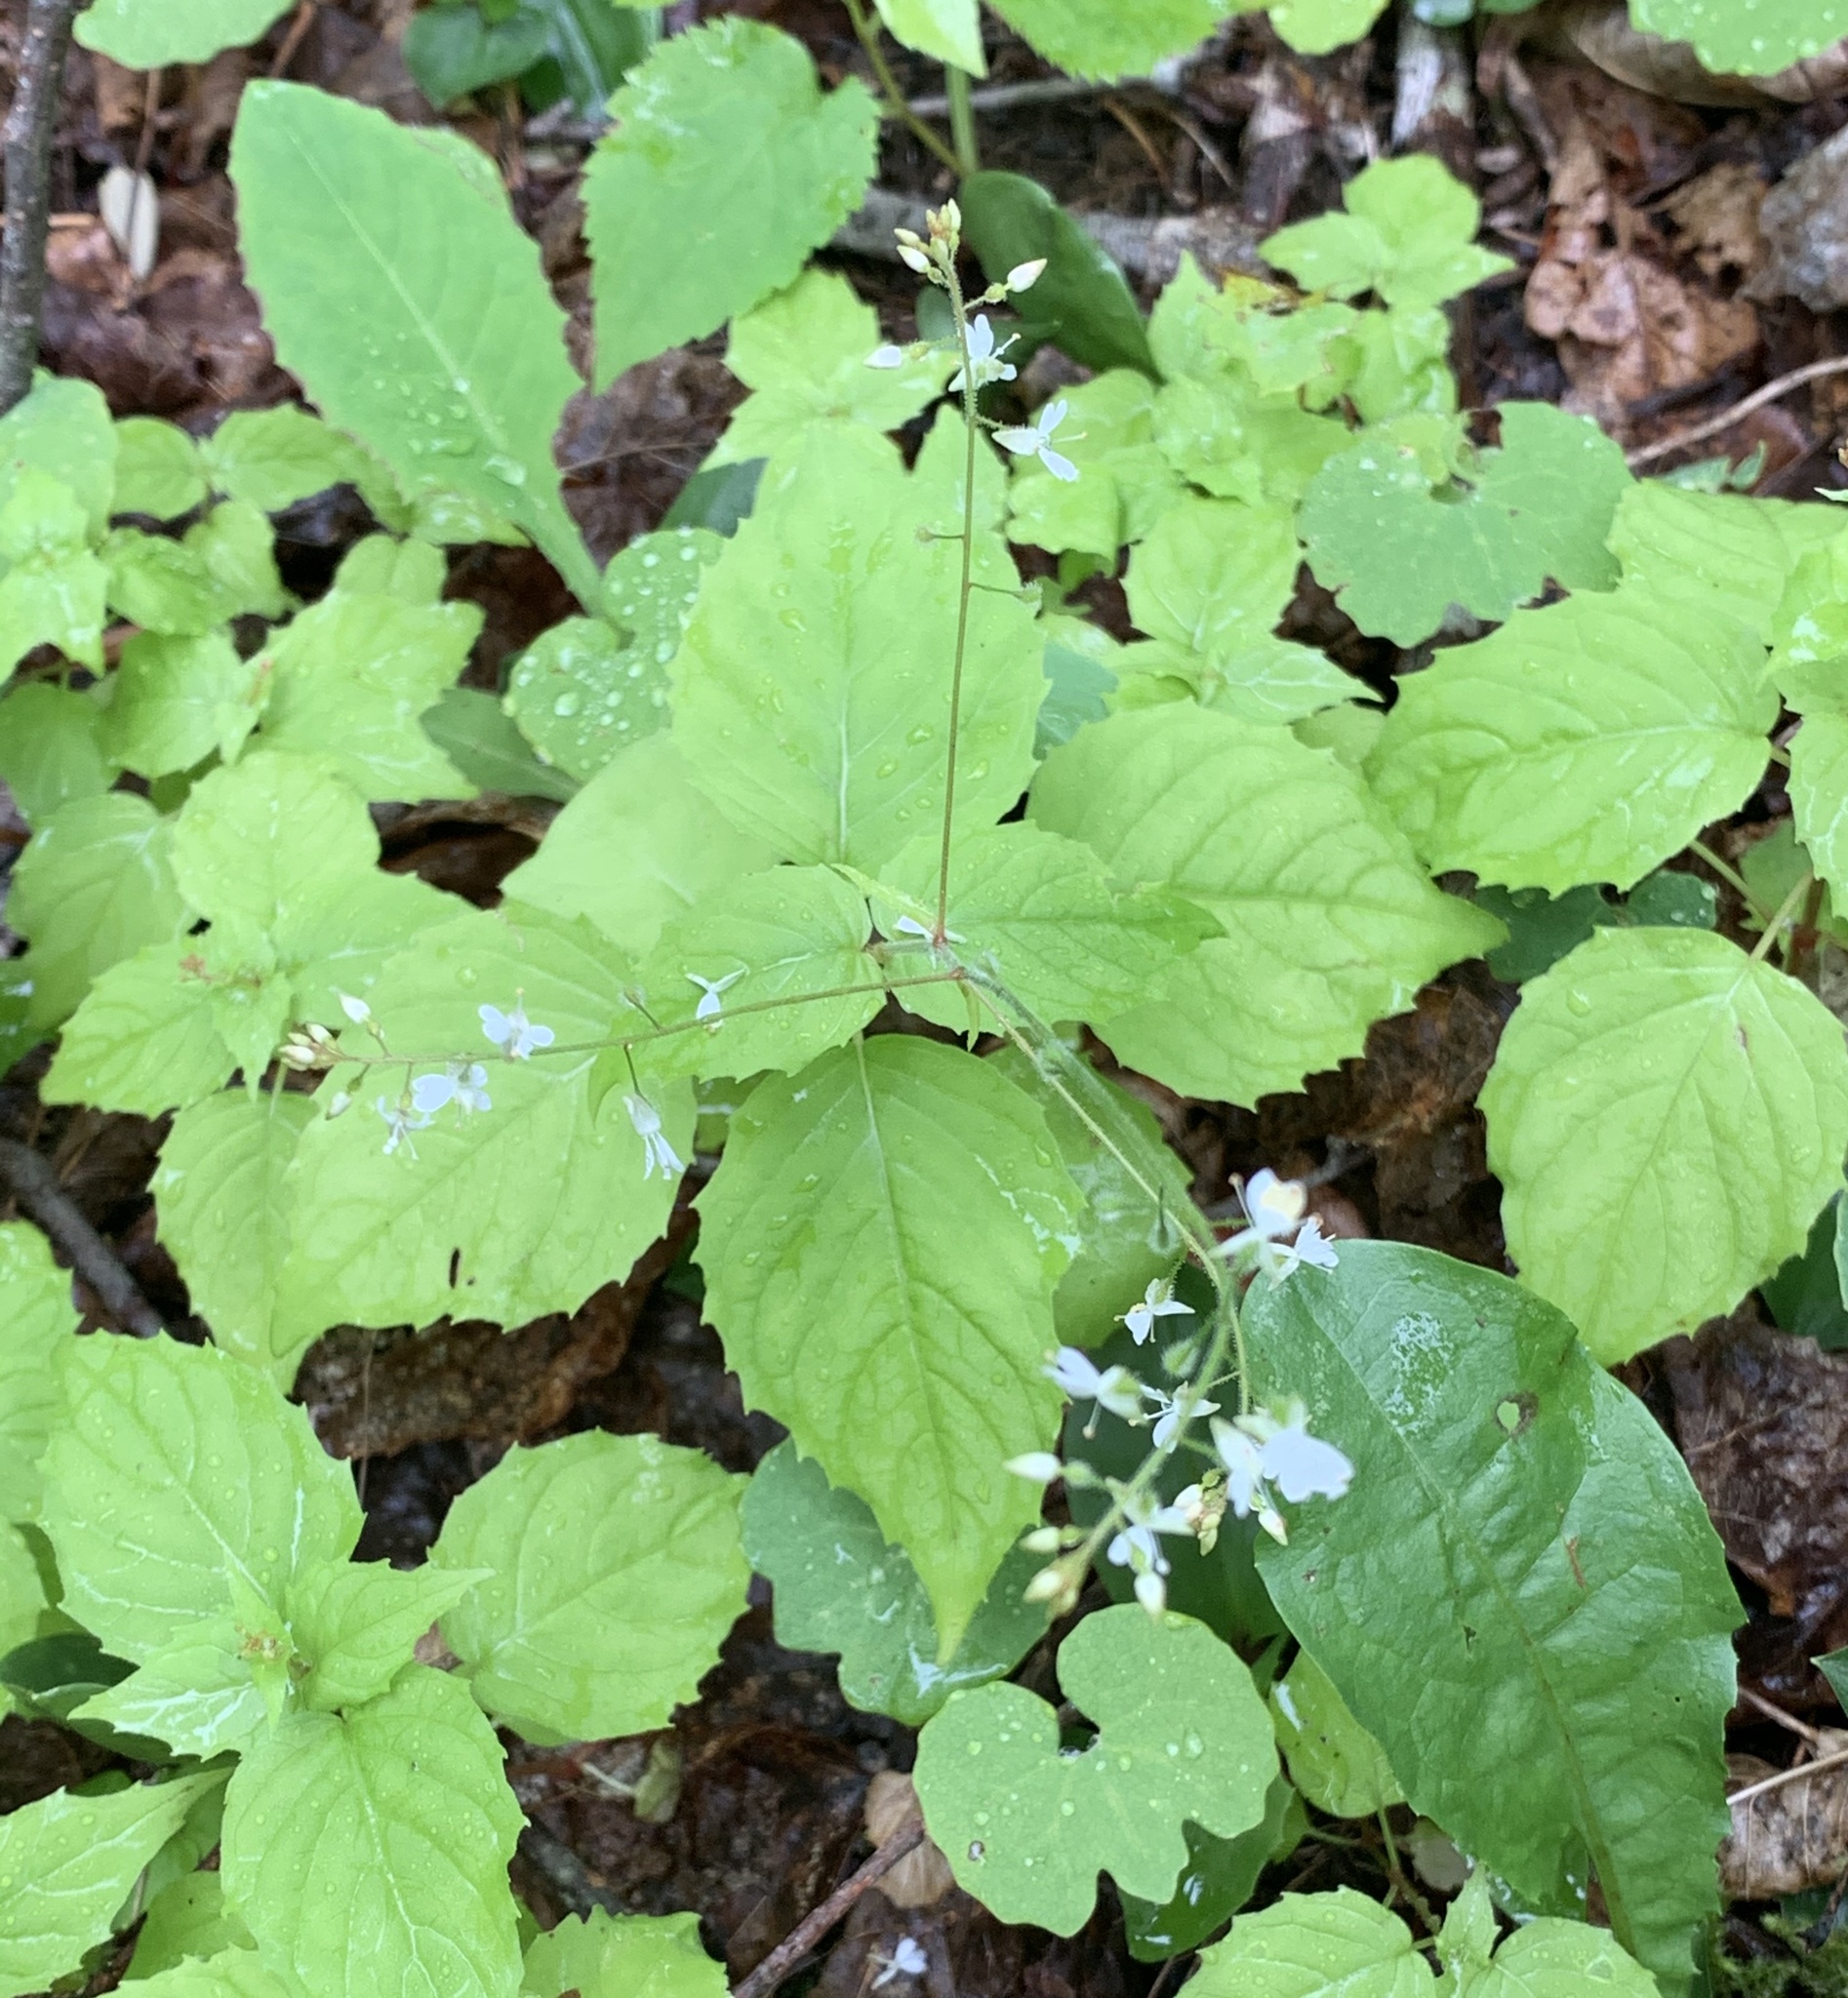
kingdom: Plantae
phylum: Tracheophyta
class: Magnoliopsida
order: Myrtales
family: Onagraceae
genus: Circaea
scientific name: Circaea alpina
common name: Alpine enchanter's-nightshade
